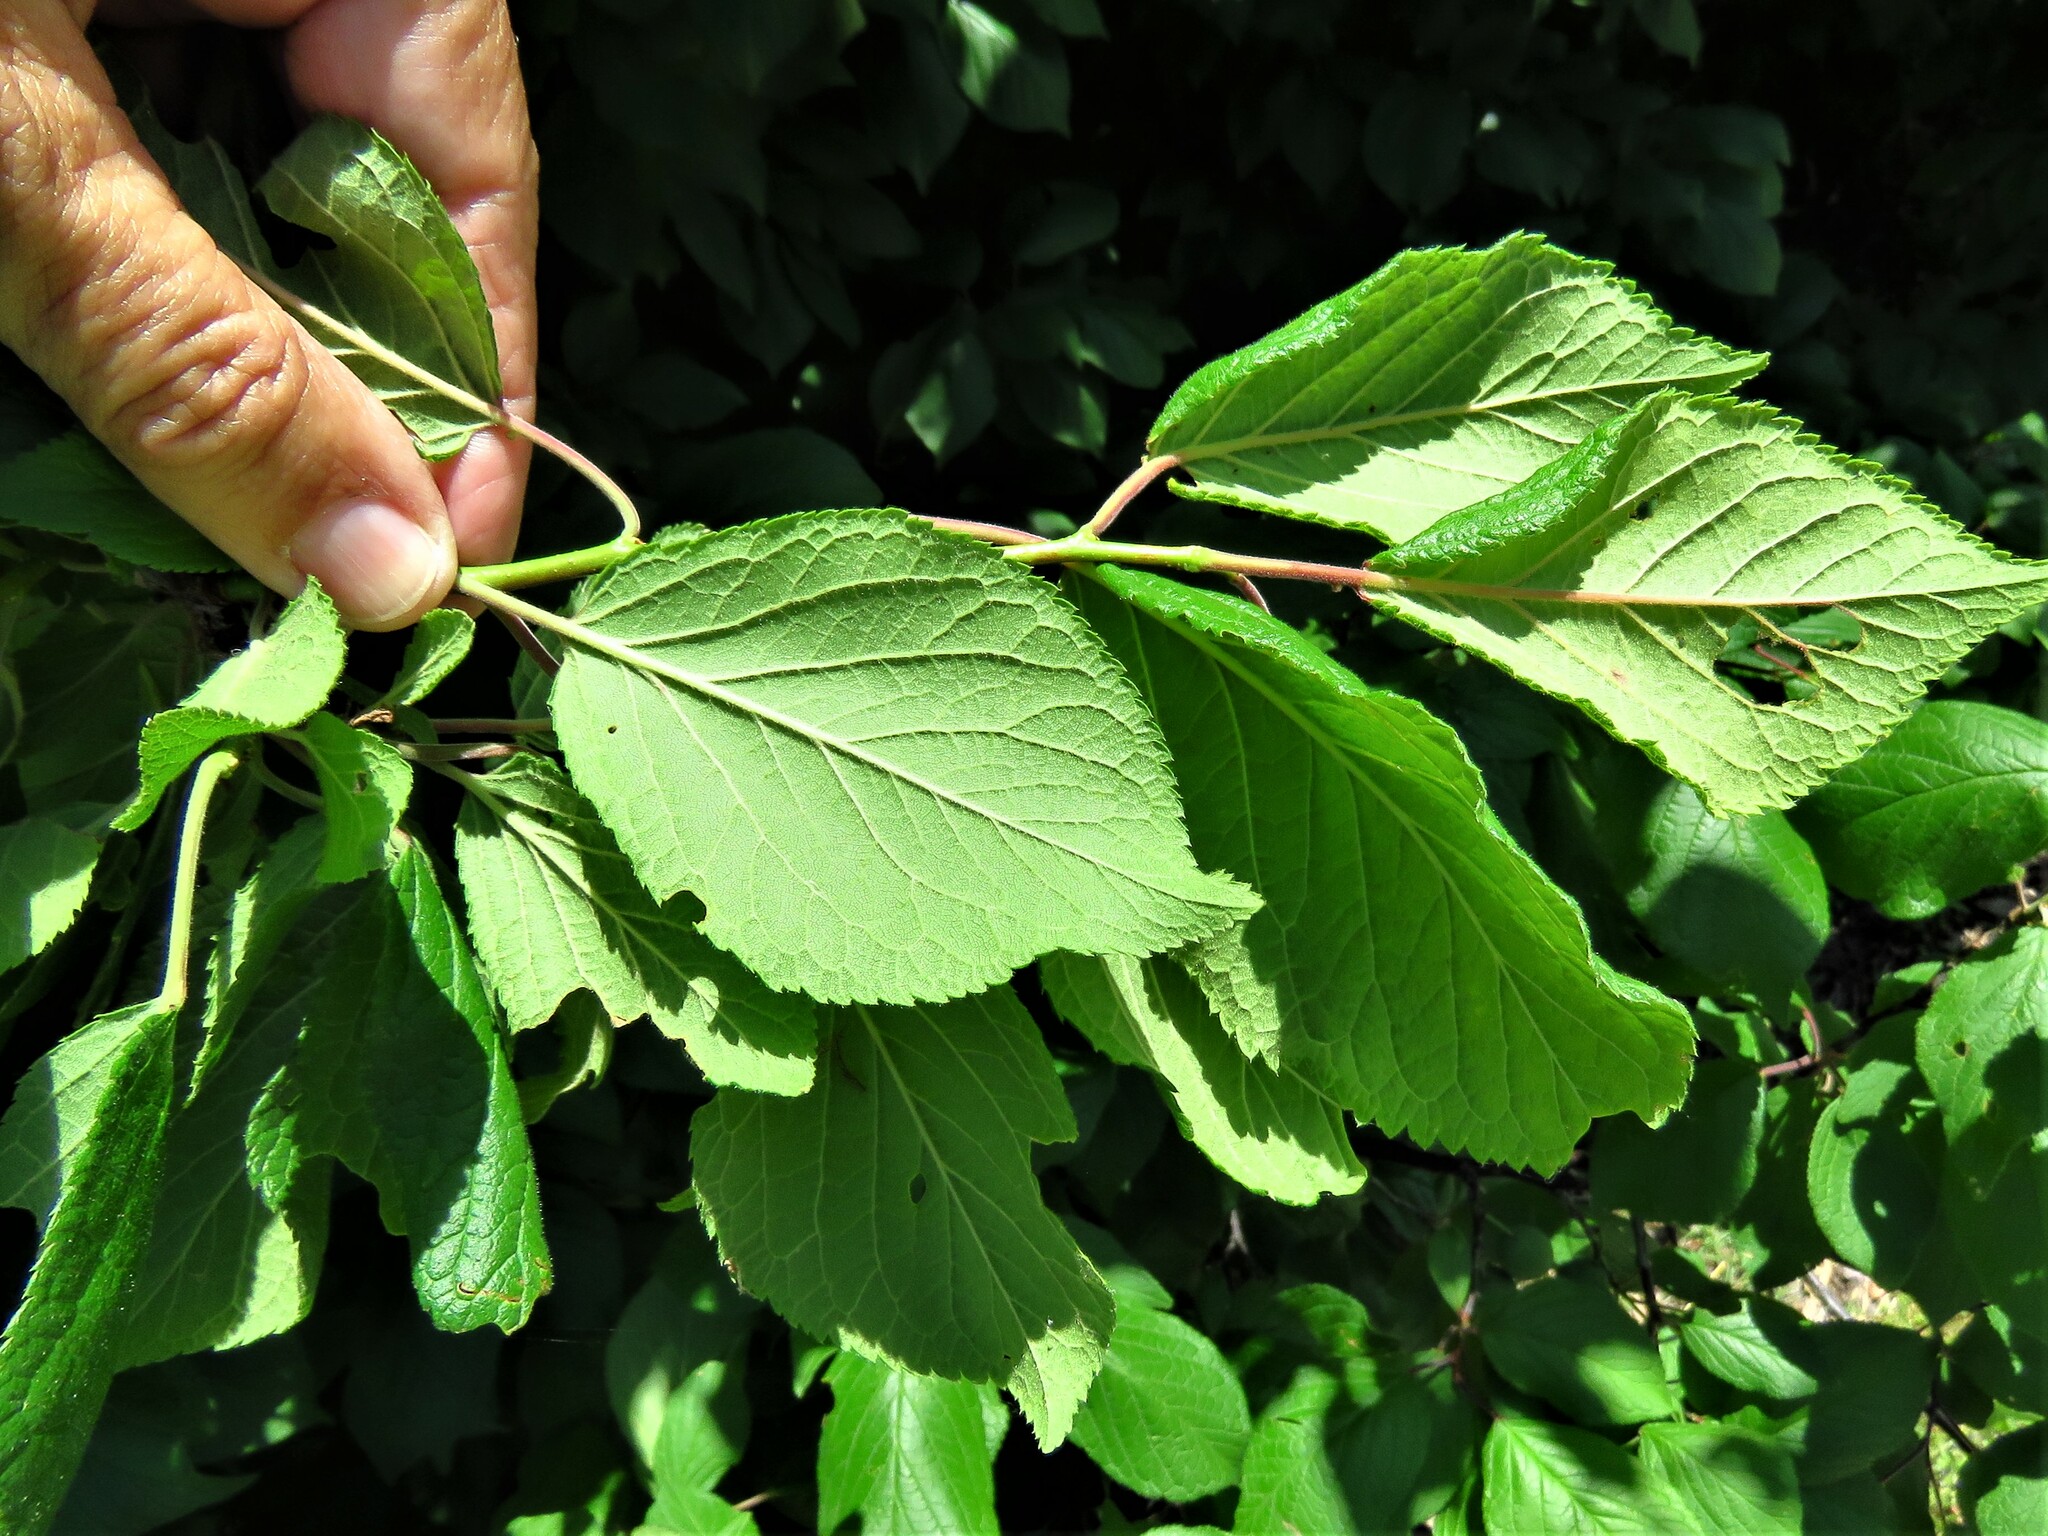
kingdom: Plantae
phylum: Tracheophyta
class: Magnoliopsida
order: Rosales
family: Rosaceae
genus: Prunus
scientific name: Prunus mexicana
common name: Mexican plum
